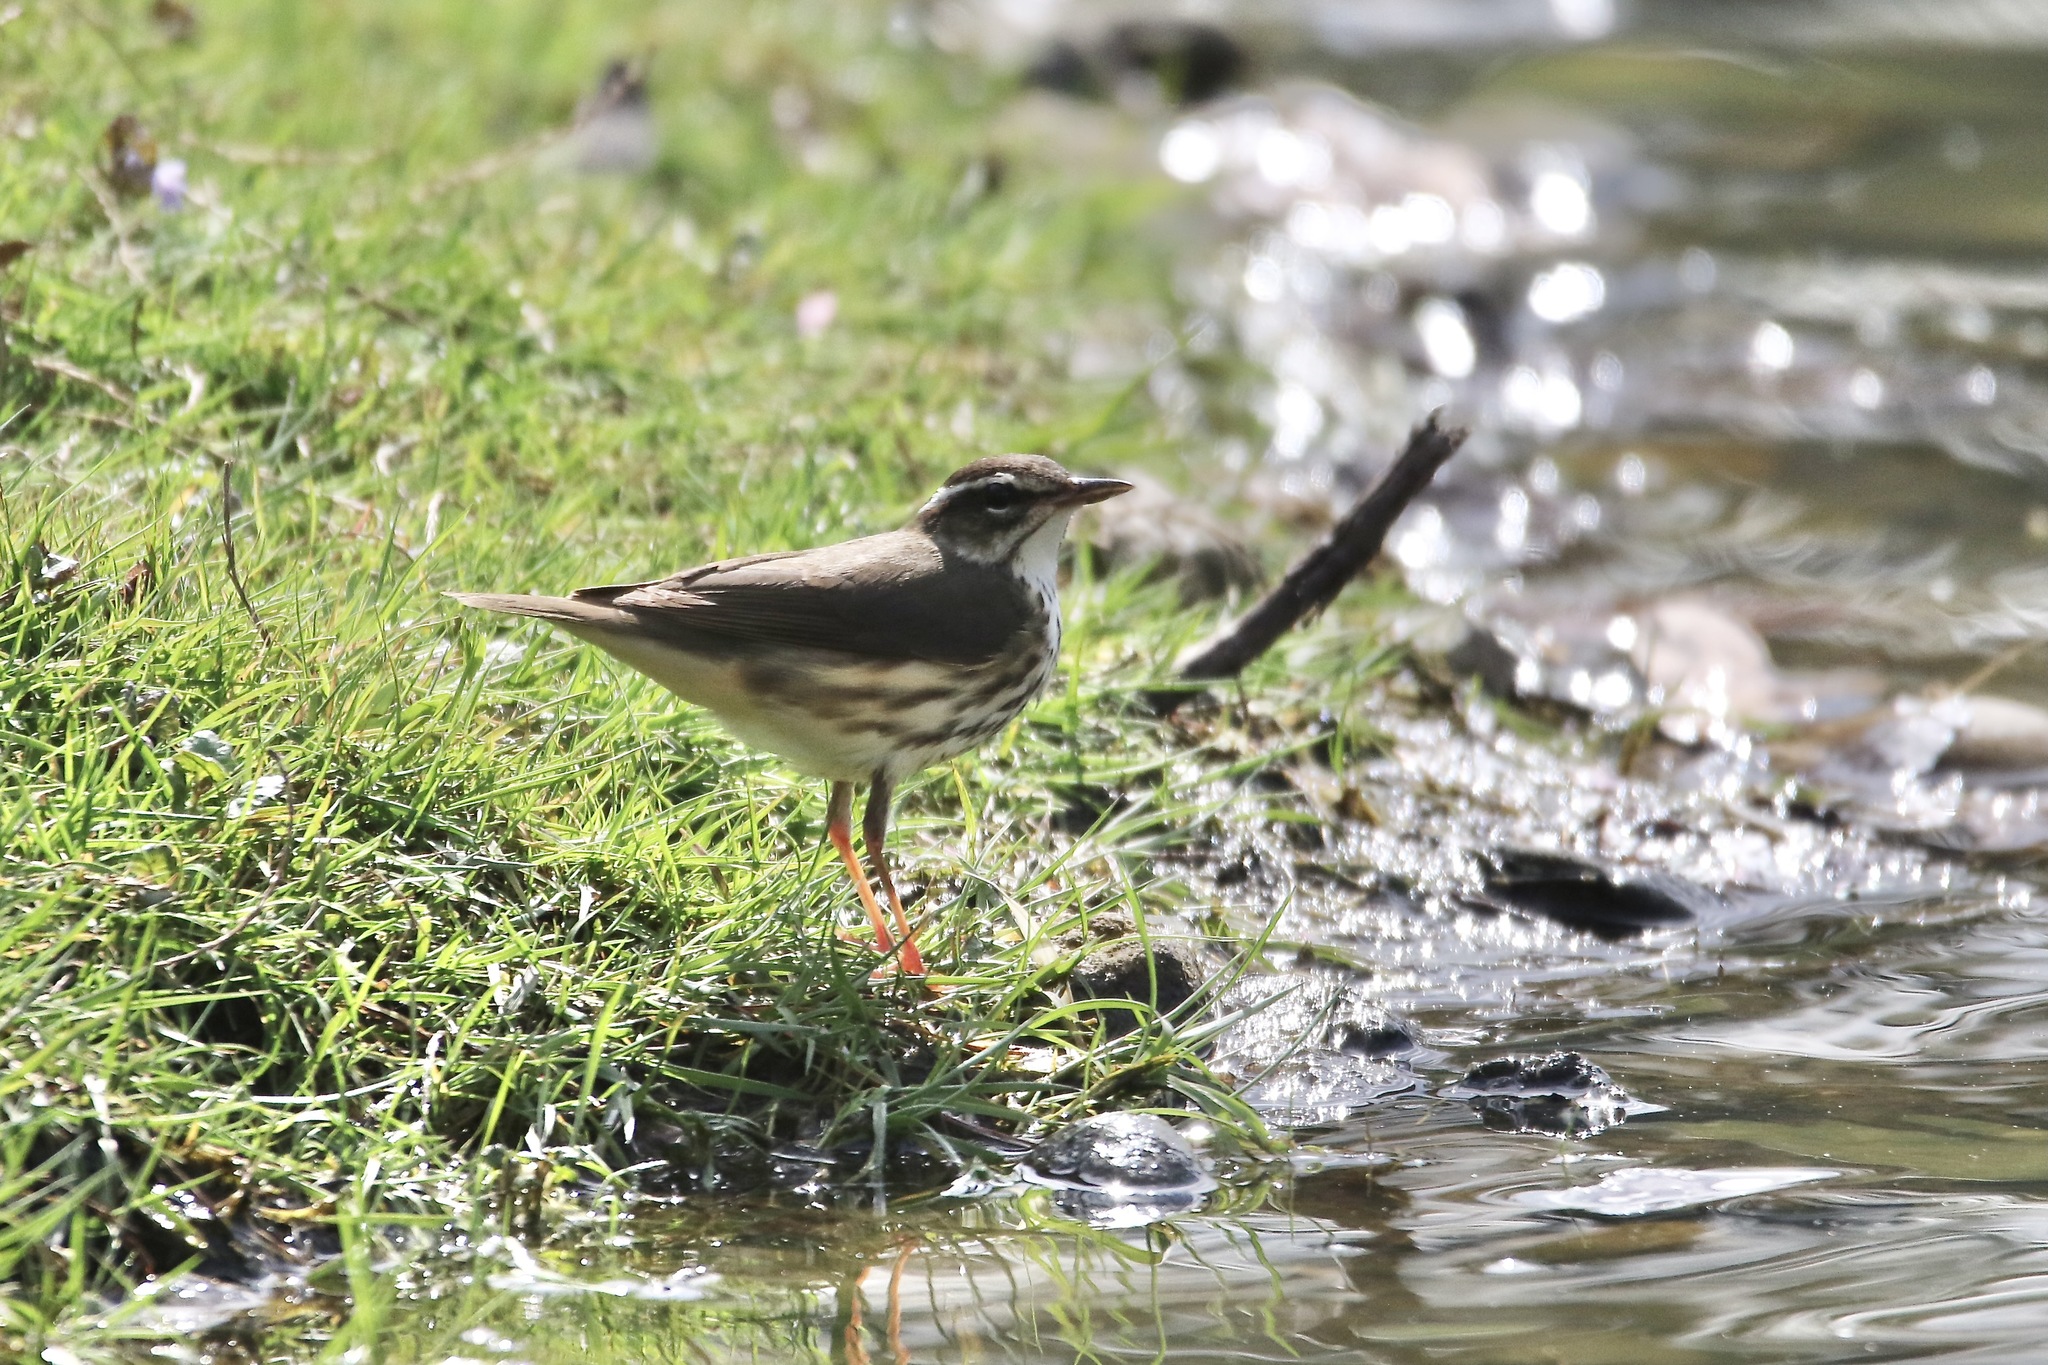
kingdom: Animalia
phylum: Chordata
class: Aves
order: Passeriformes
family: Parulidae
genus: Parkesia
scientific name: Parkesia motacilla
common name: Louisiana waterthrush
